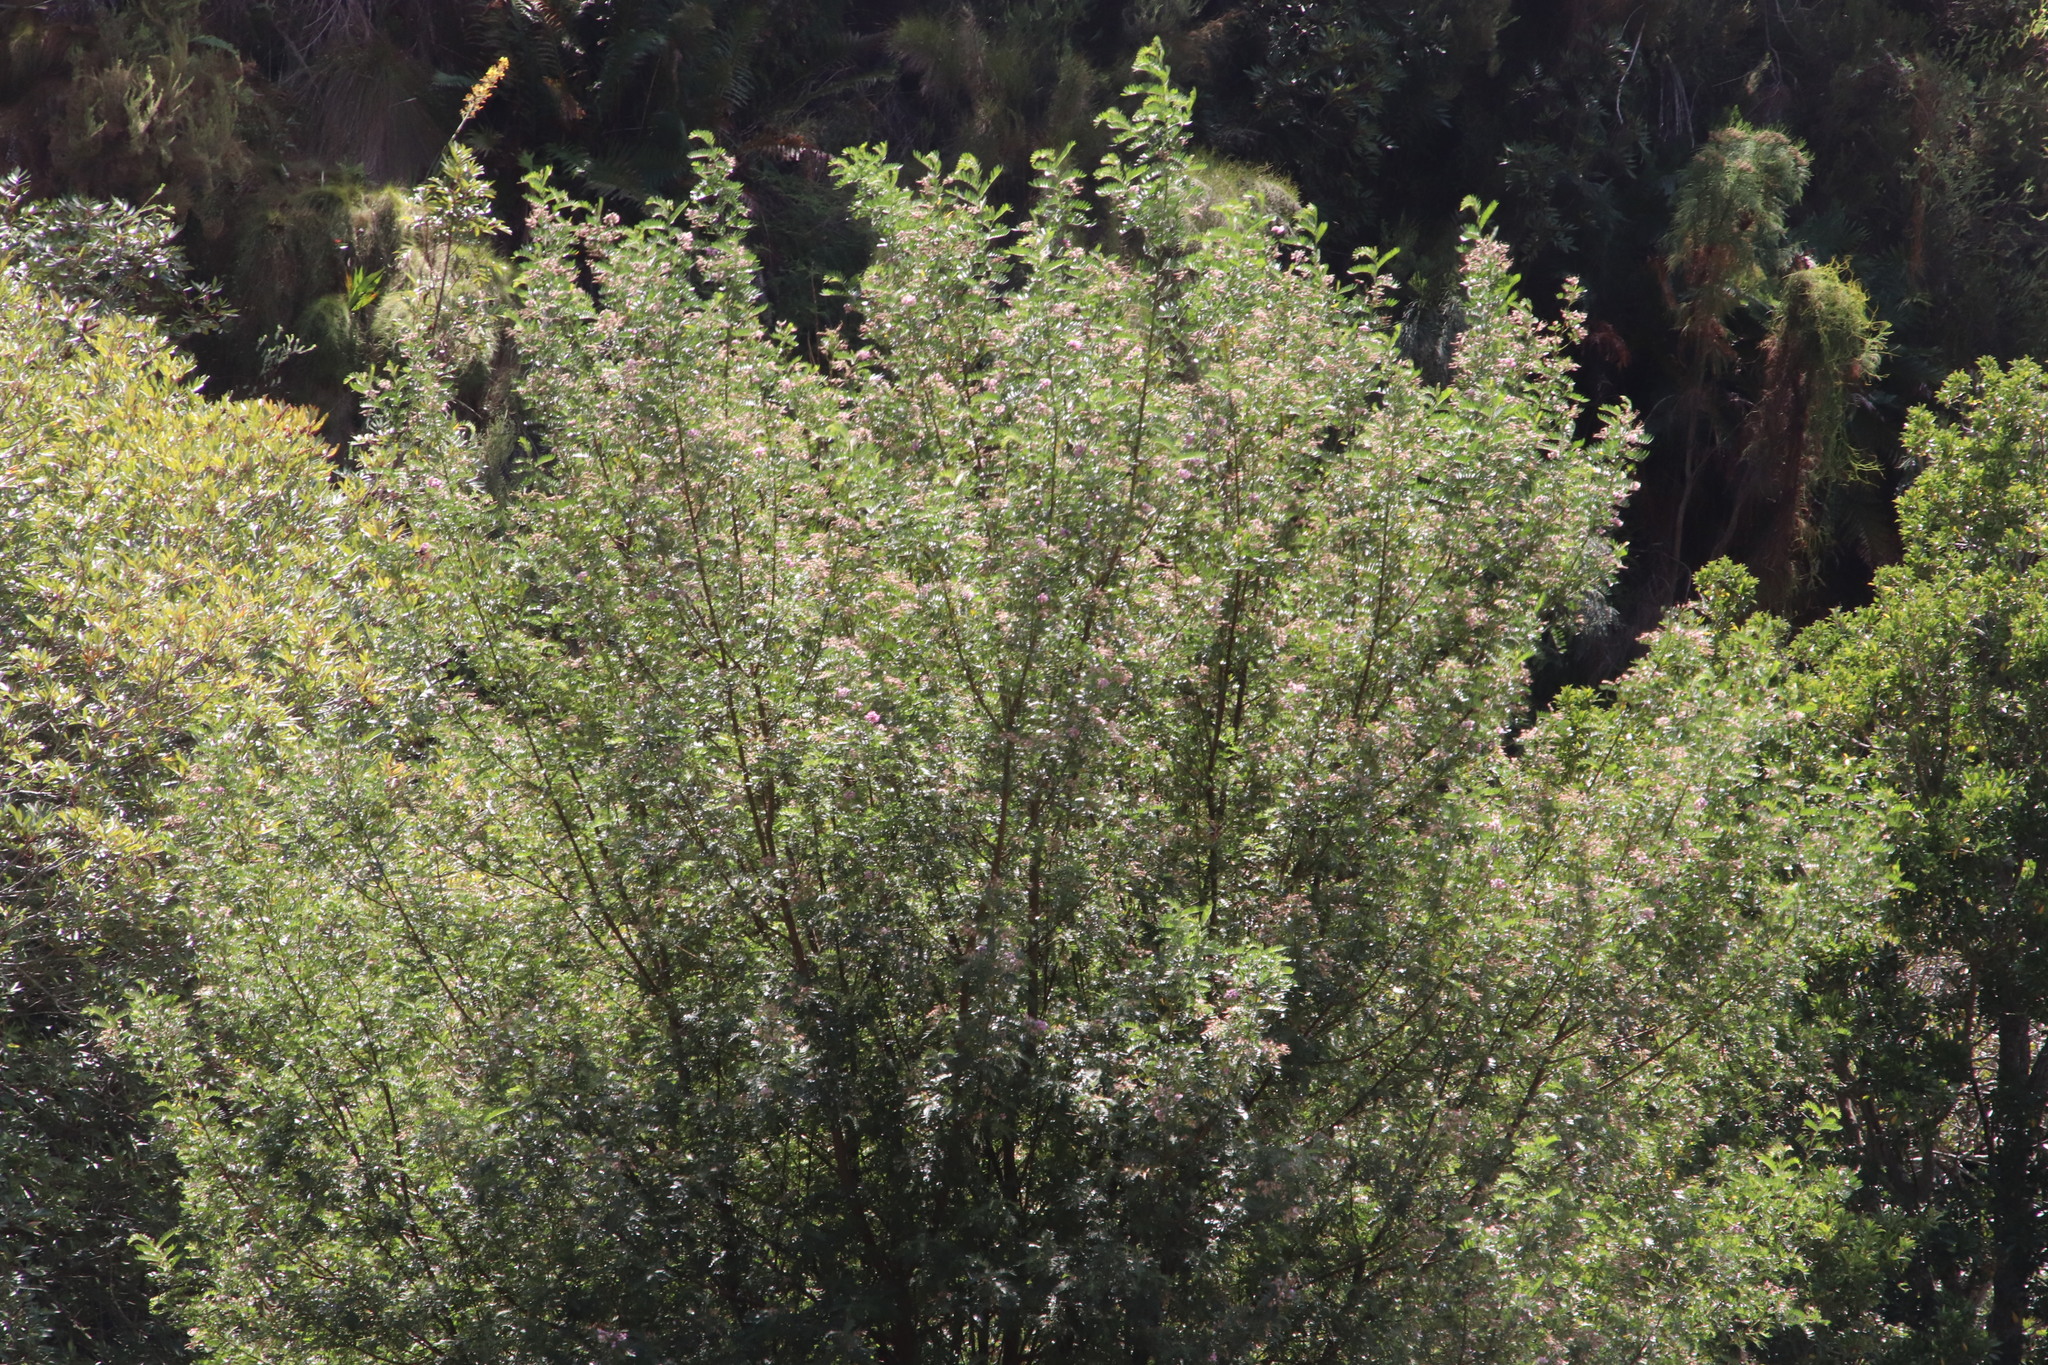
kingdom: Plantae
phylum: Tracheophyta
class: Magnoliopsida
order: Fabales
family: Fabaceae
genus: Virgilia
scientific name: Virgilia oroboides
